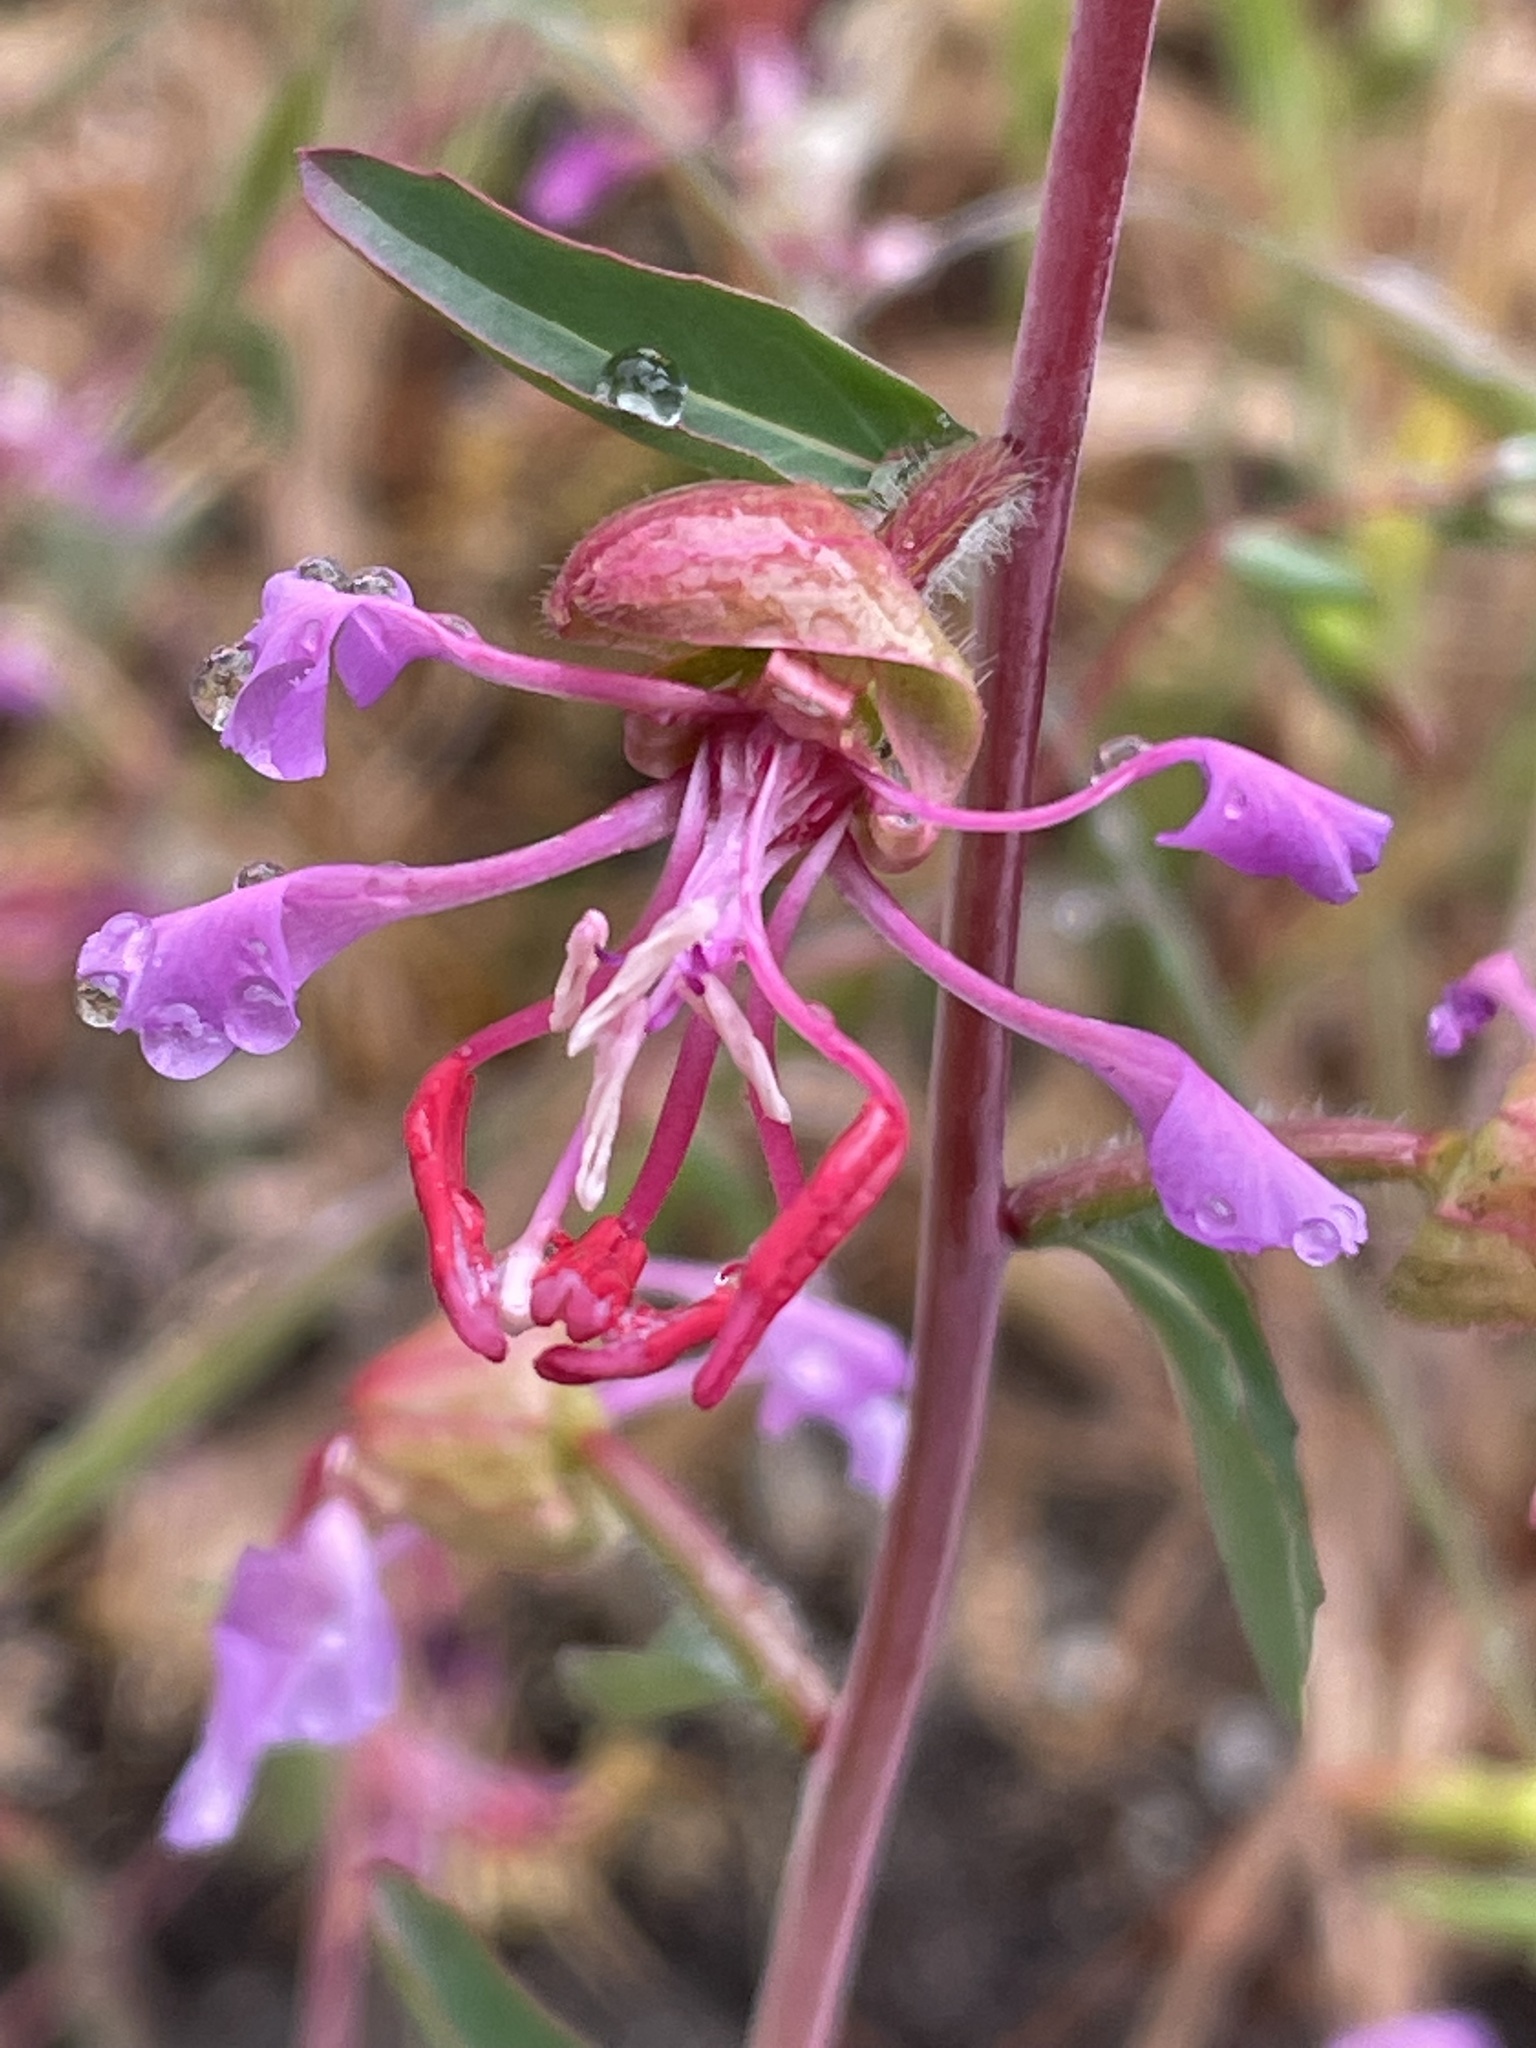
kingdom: Plantae
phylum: Tracheophyta
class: Magnoliopsida
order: Myrtales
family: Onagraceae
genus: Clarkia
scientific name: Clarkia unguiculata
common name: Clarkia
